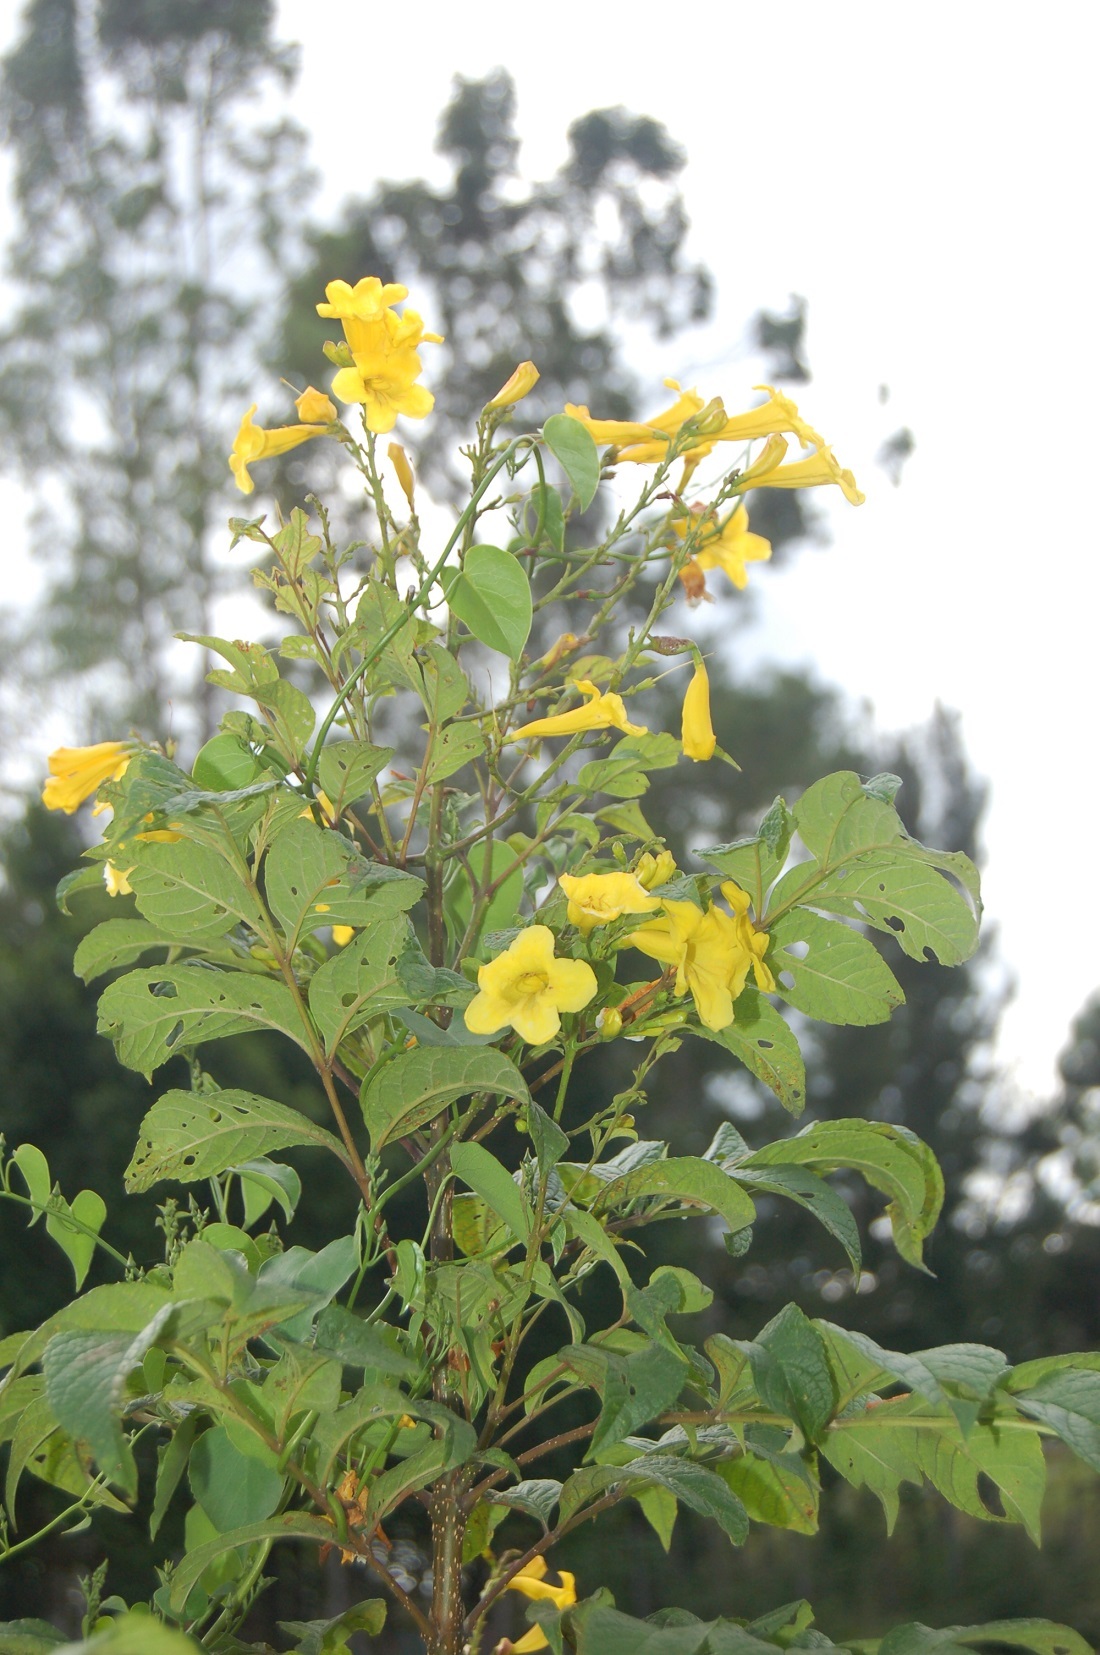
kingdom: Plantae
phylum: Tracheophyta
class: Magnoliopsida
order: Lamiales
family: Bignoniaceae
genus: Tecoma
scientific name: Tecoma stans
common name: Yellow trumpetbush
